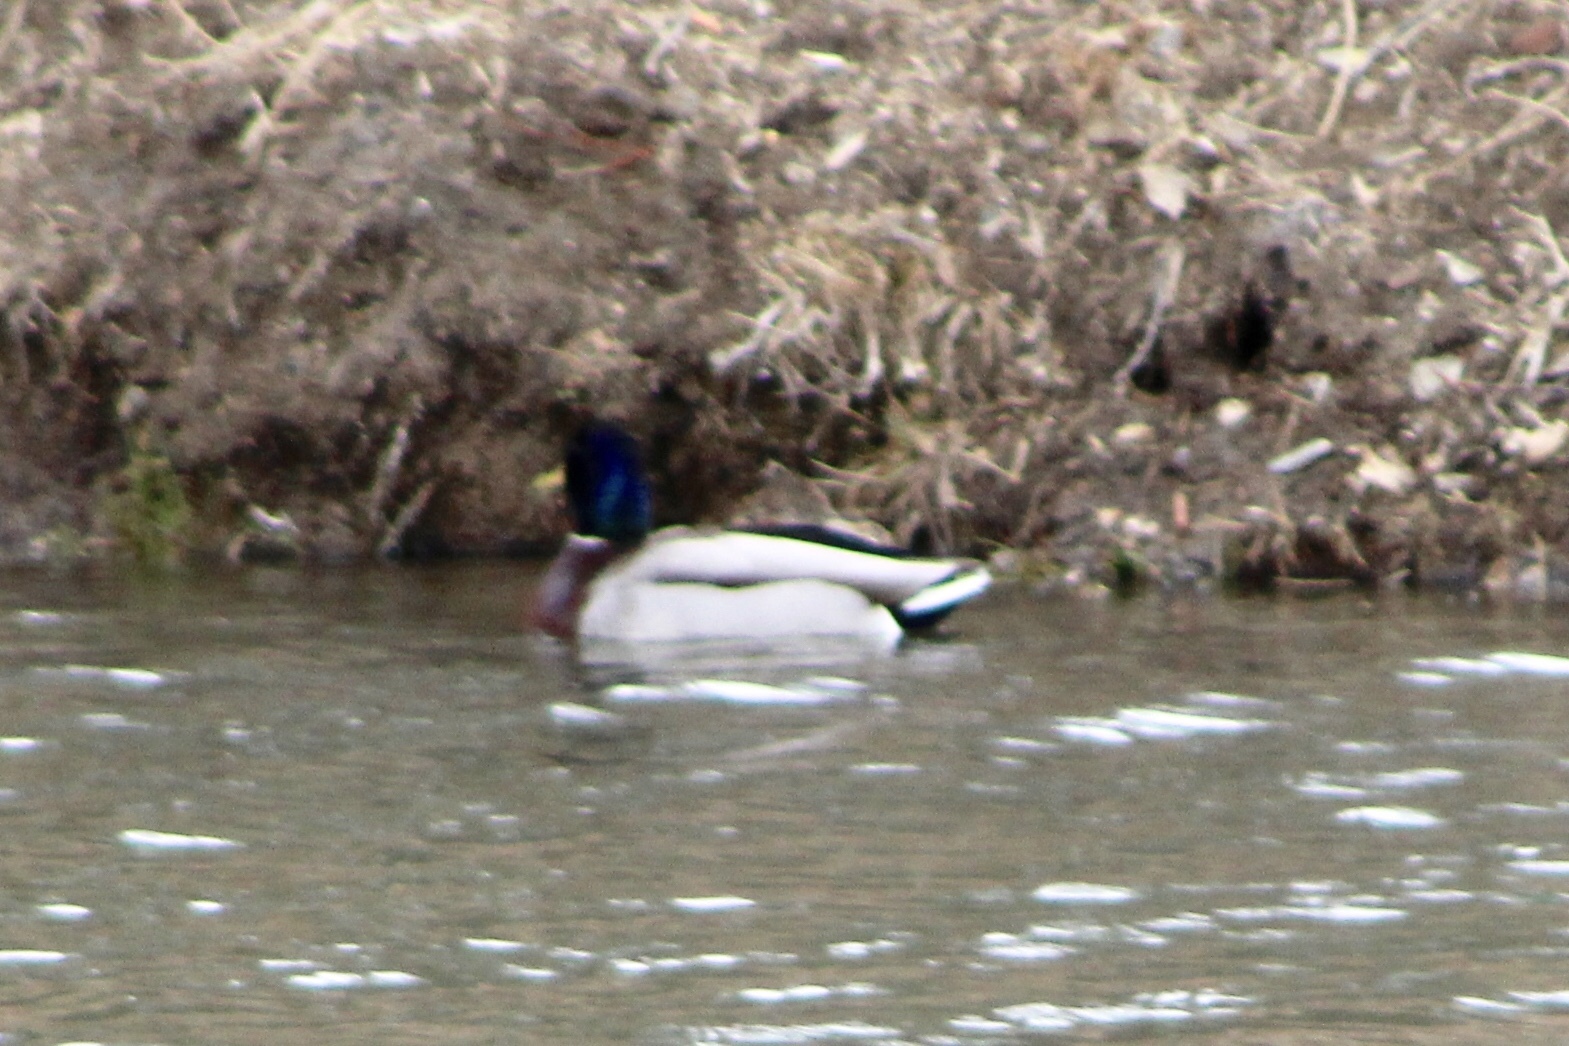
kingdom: Animalia
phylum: Chordata
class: Aves
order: Anseriformes
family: Anatidae
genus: Anas
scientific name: Anas platyrhynchos
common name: Mallard
